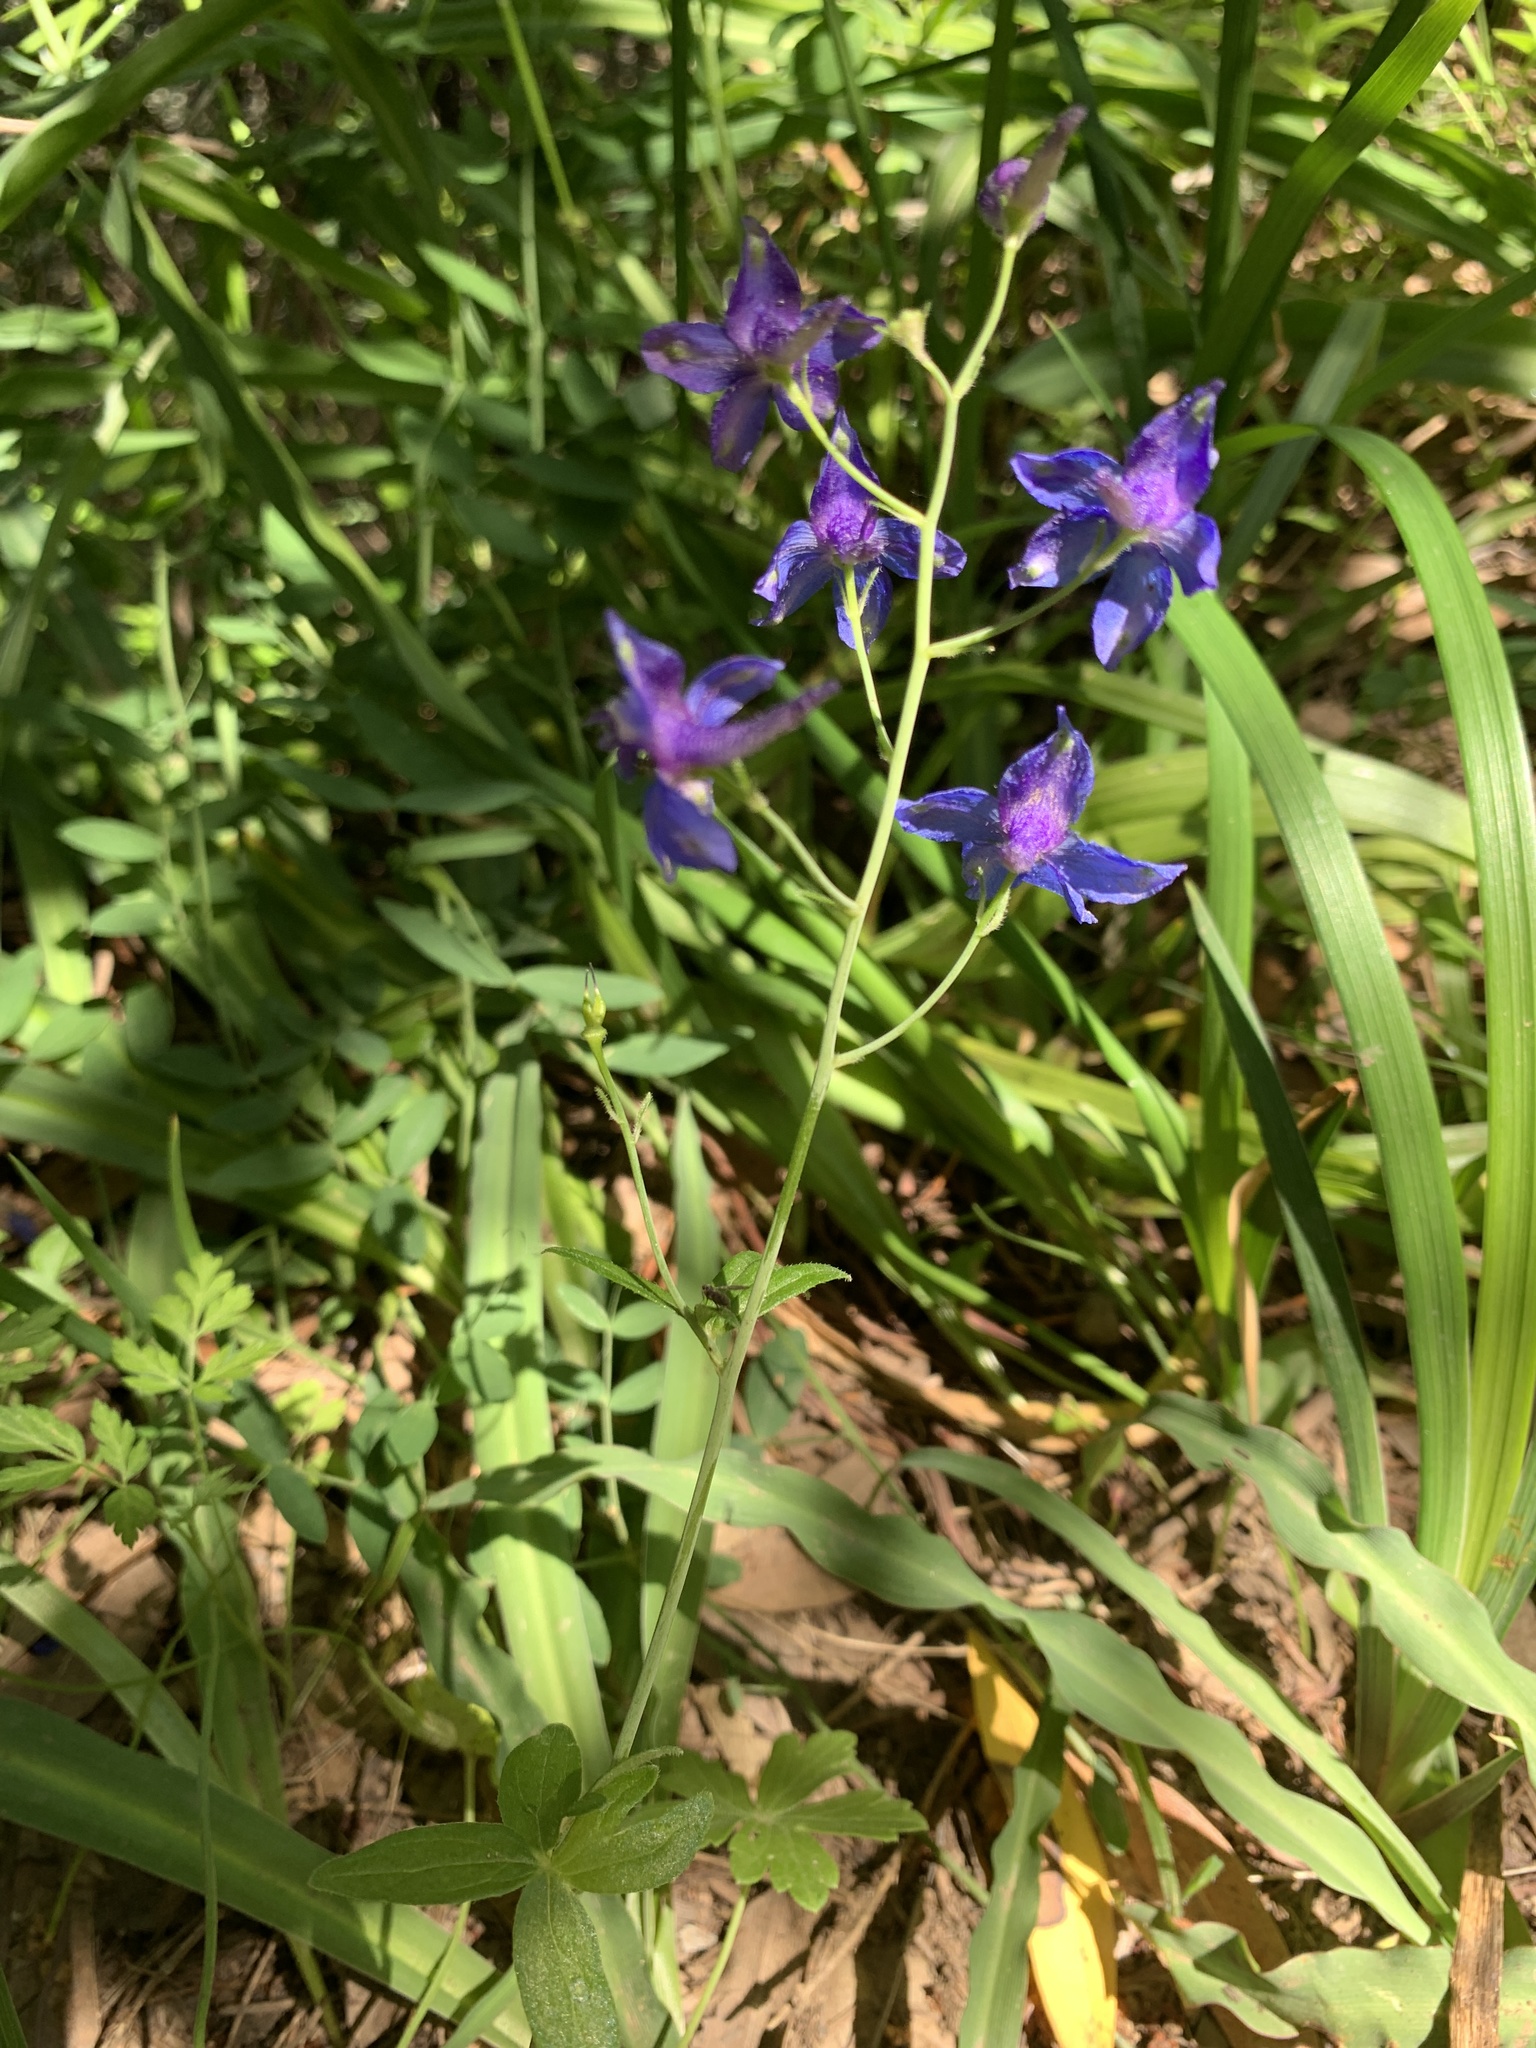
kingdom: Plantae
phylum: Tracheophyta
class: Magnoliopsida
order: Ranunculales
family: Ranunculaceae
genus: Delphinium
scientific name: Delphinium patens
